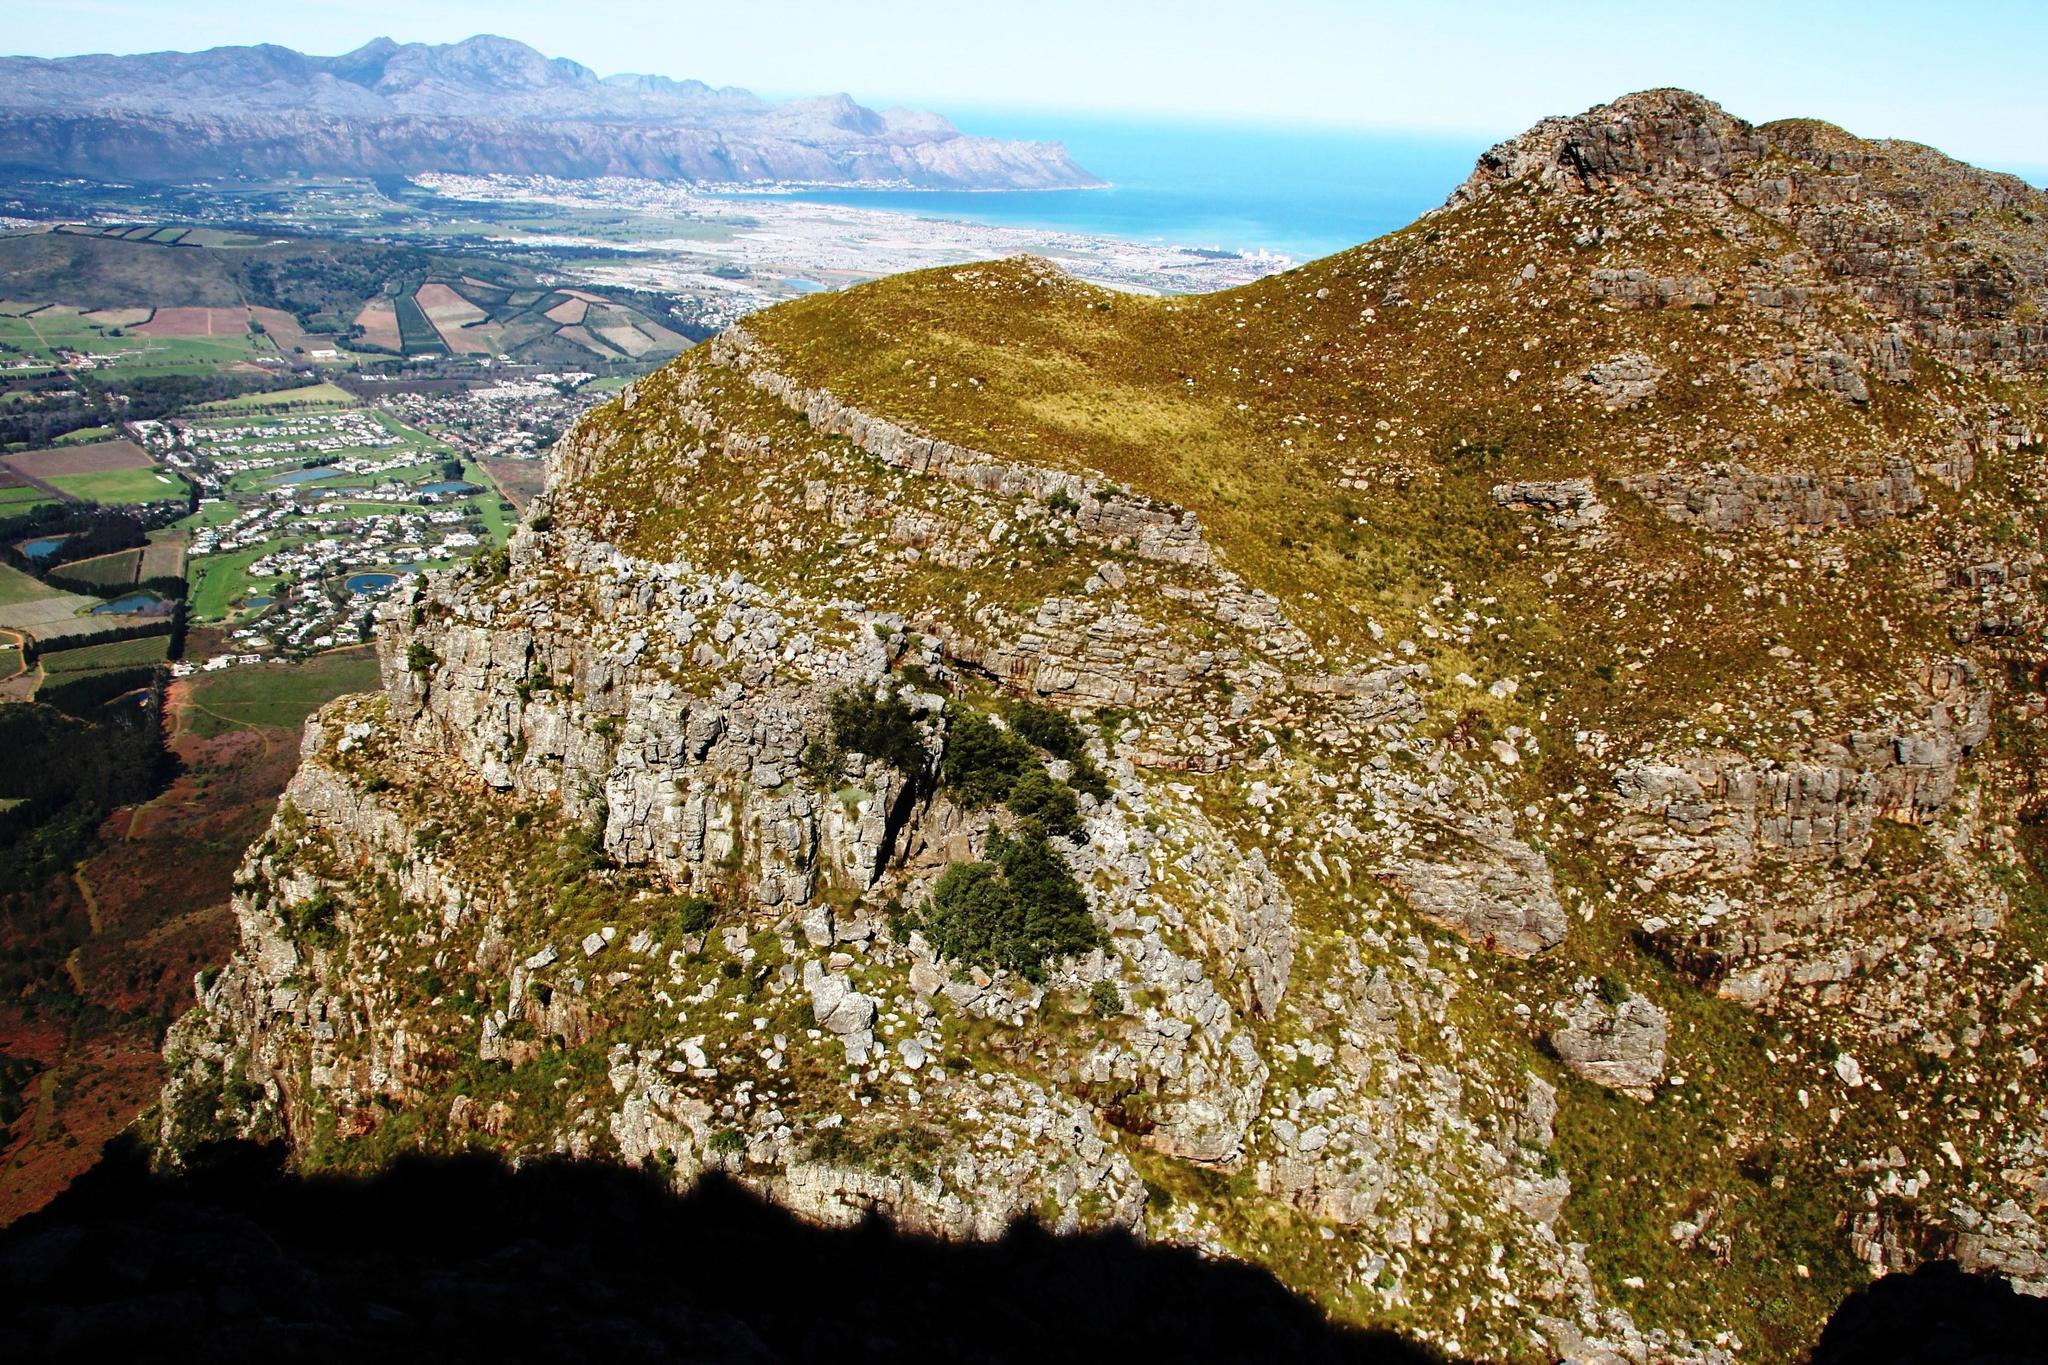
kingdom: Plantae
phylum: Tracheophyta
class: Pinopsida
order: Pinales
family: Podocarpaceae
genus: Podocarpus
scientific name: Podocarpus latifolius
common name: True yellowwood
